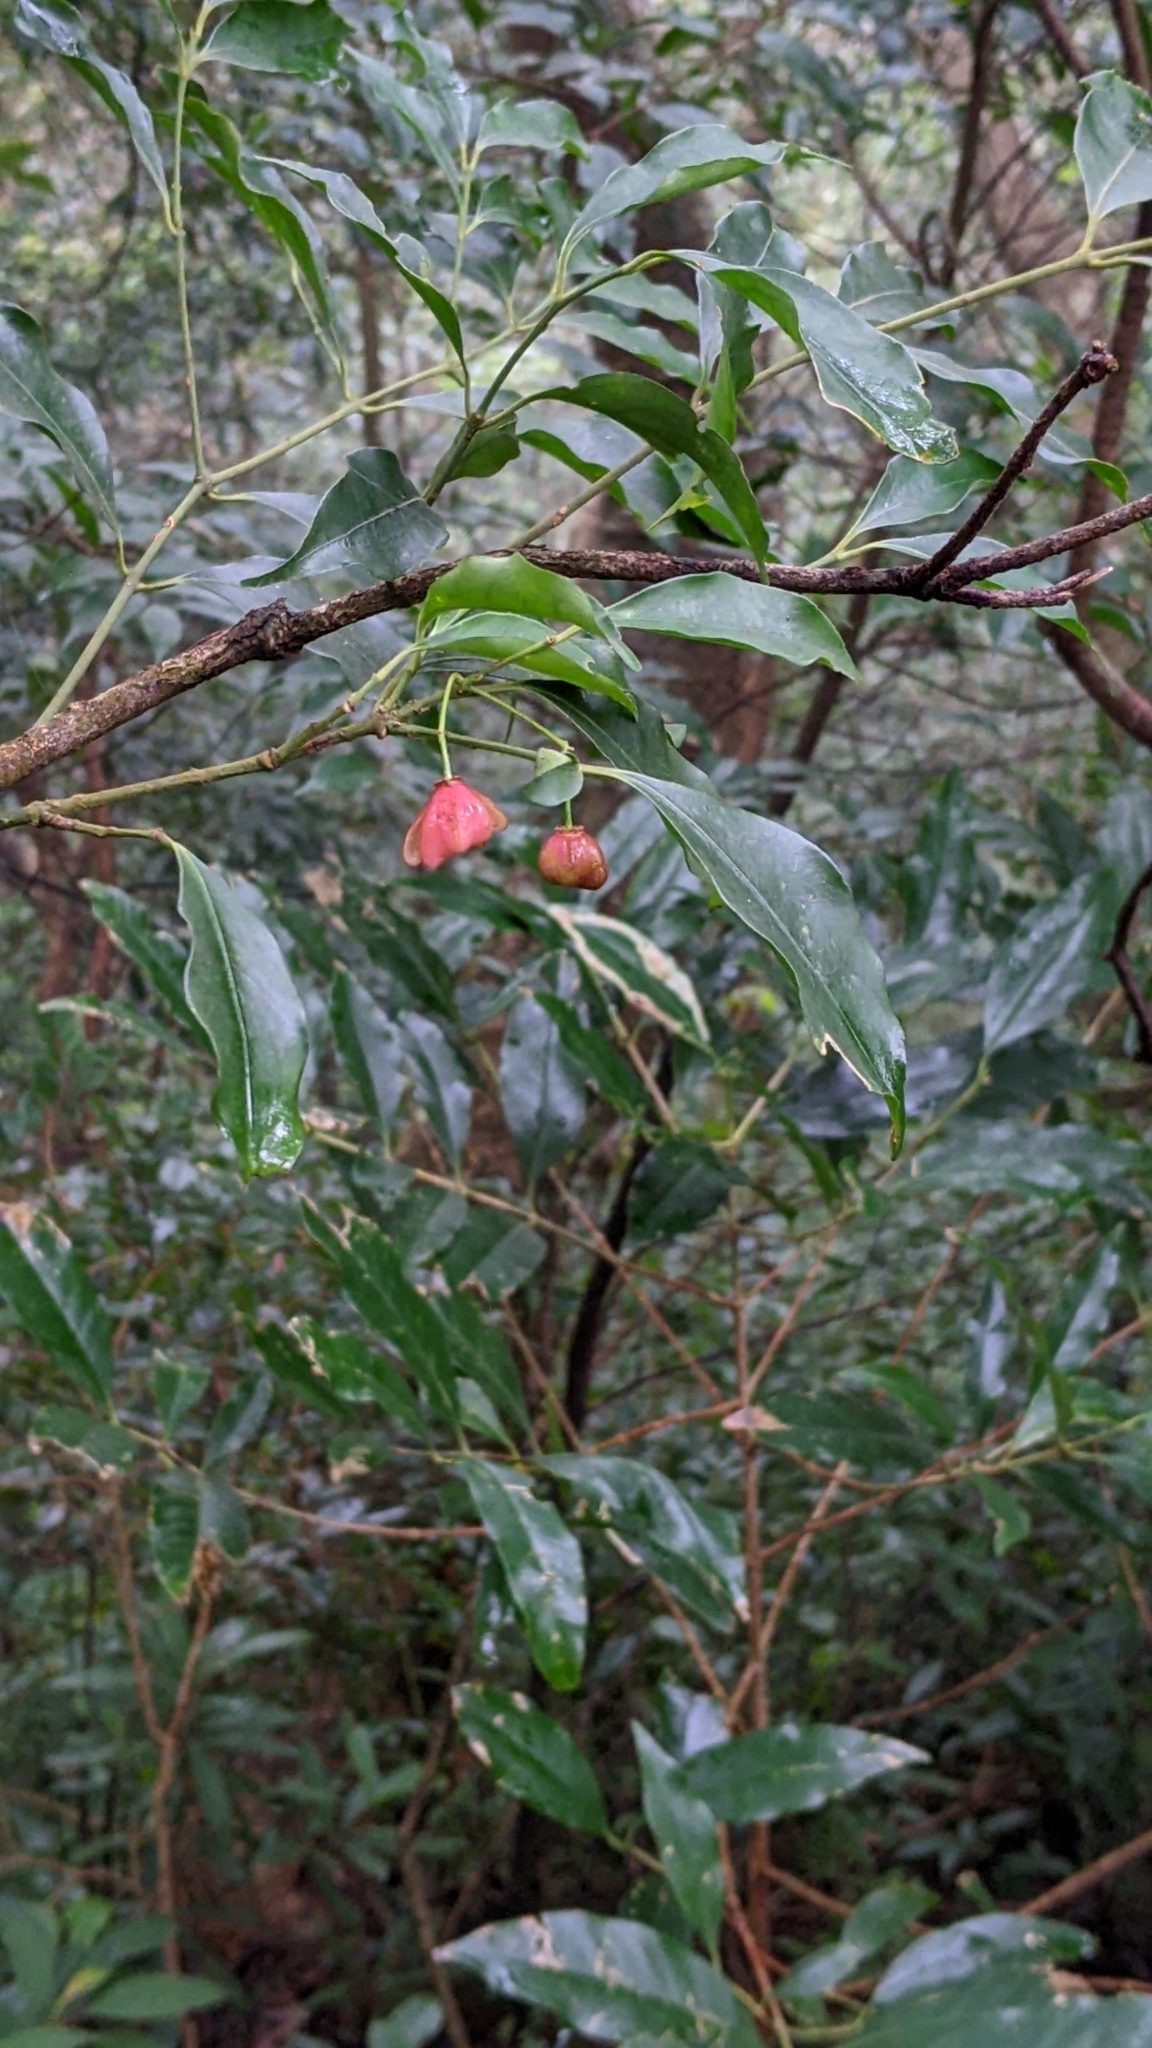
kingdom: Plantae
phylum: Tracheophyta
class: Magnoliopsida
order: Celastrales
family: Celastraceae
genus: Euonymus
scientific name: Euonymus laxiflorus
